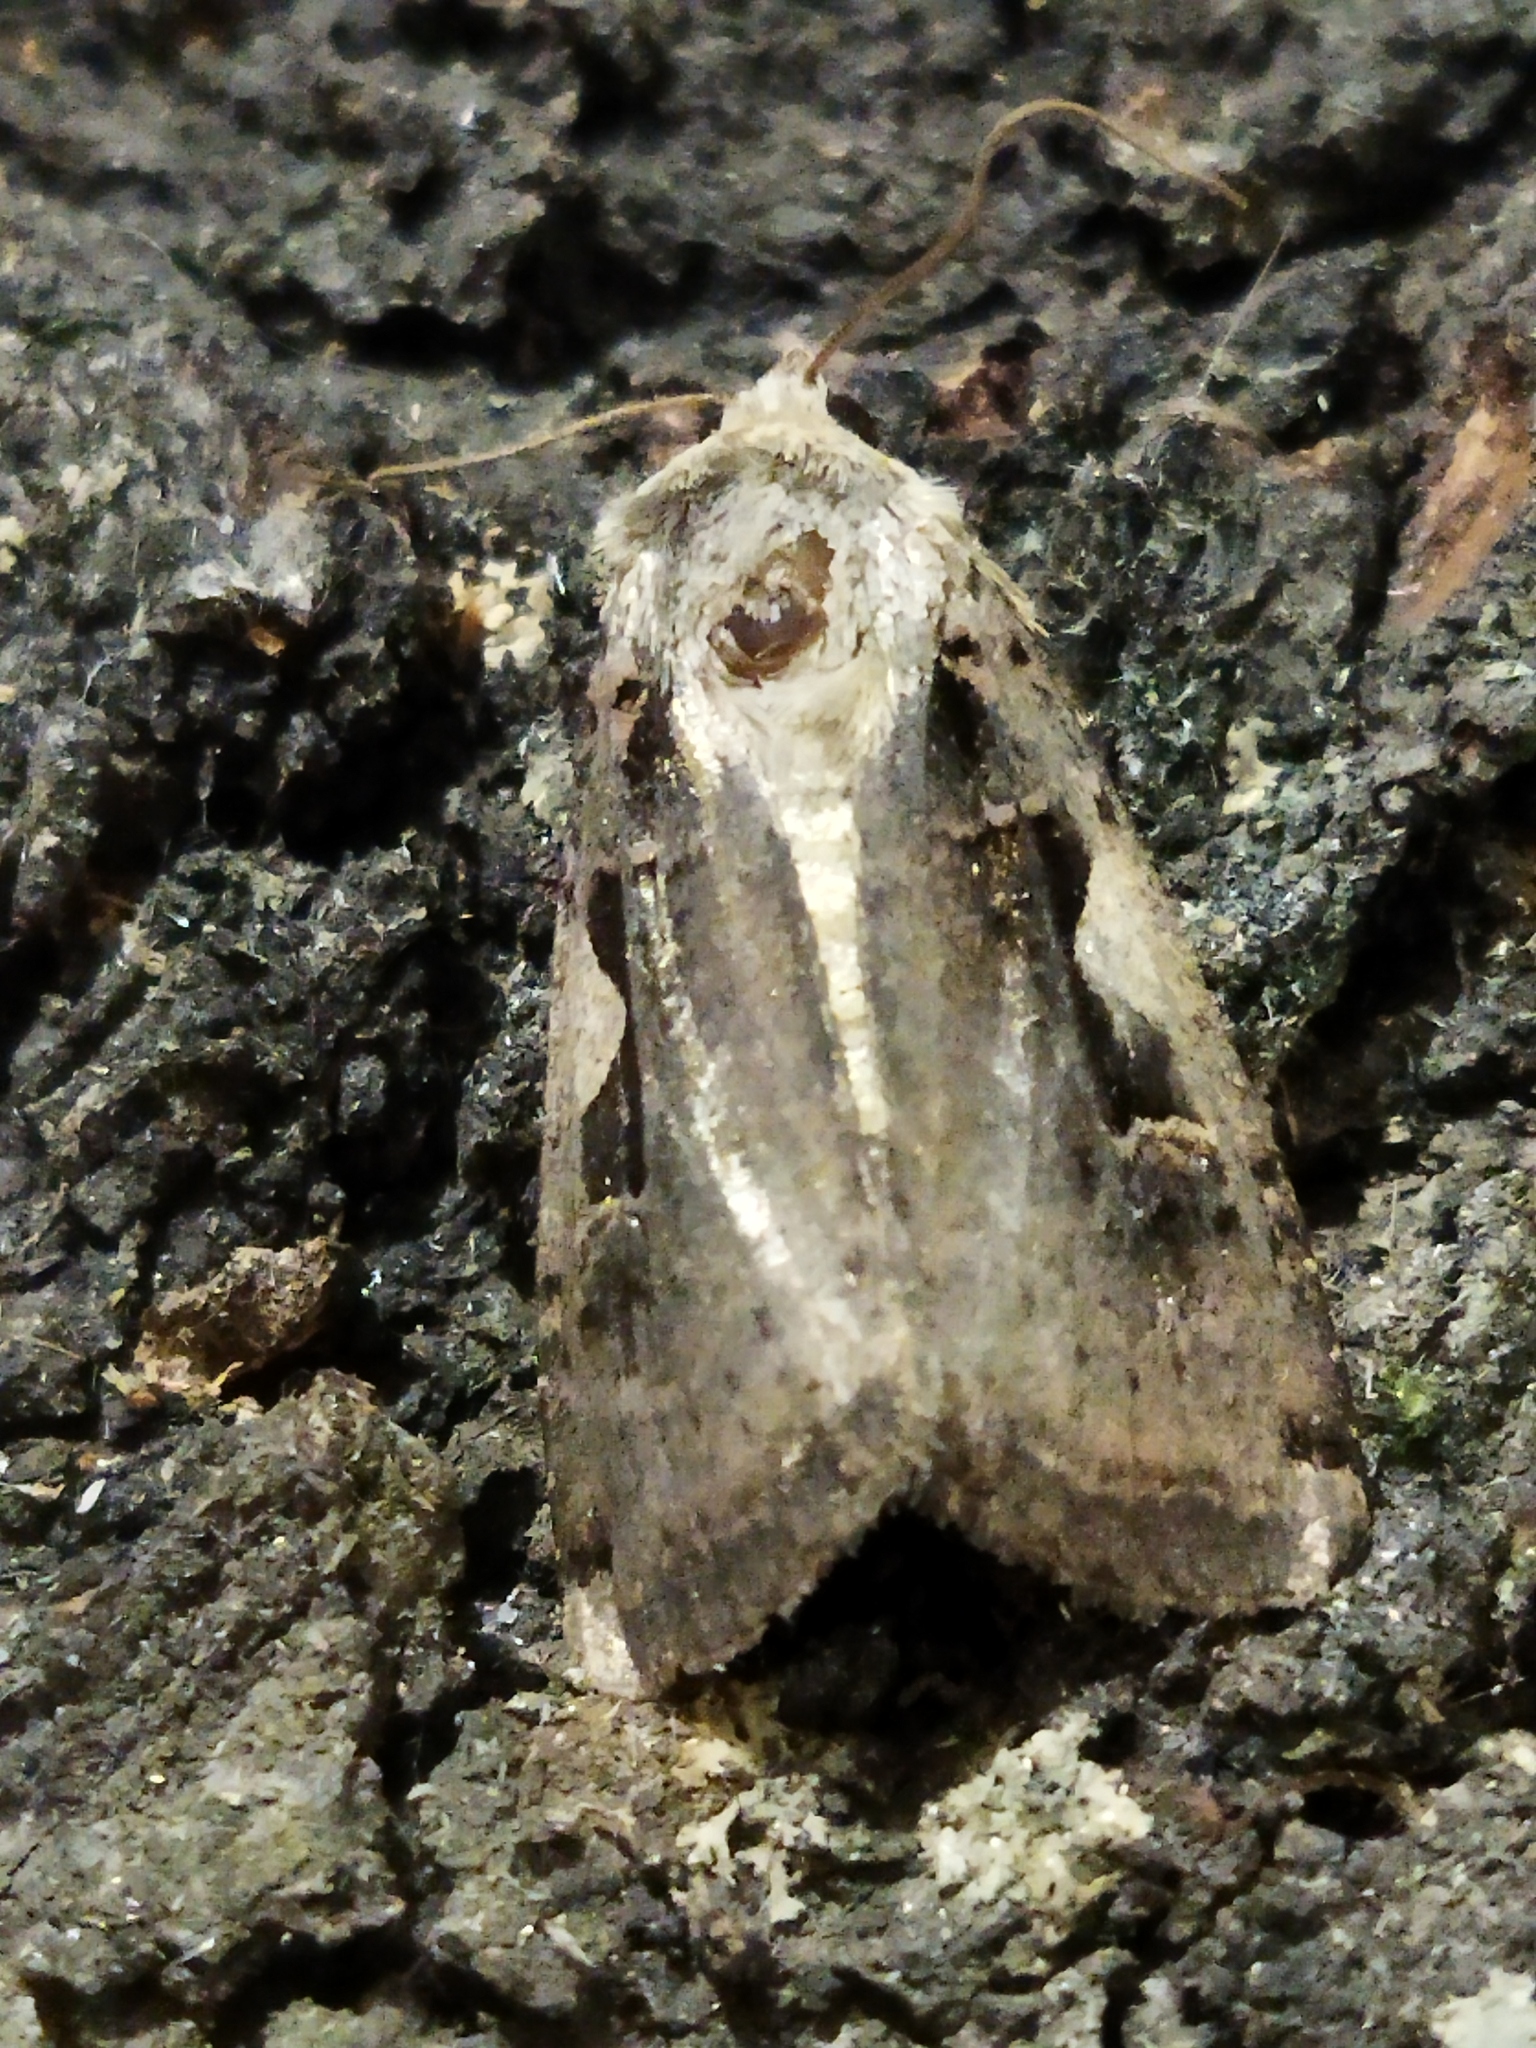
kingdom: Animalia
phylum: Arthropoda
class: Insecta
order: Lepidoptera
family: Noctuidae
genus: Xestia
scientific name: Xestia c-nigrum
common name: Setaceous hebrew character
